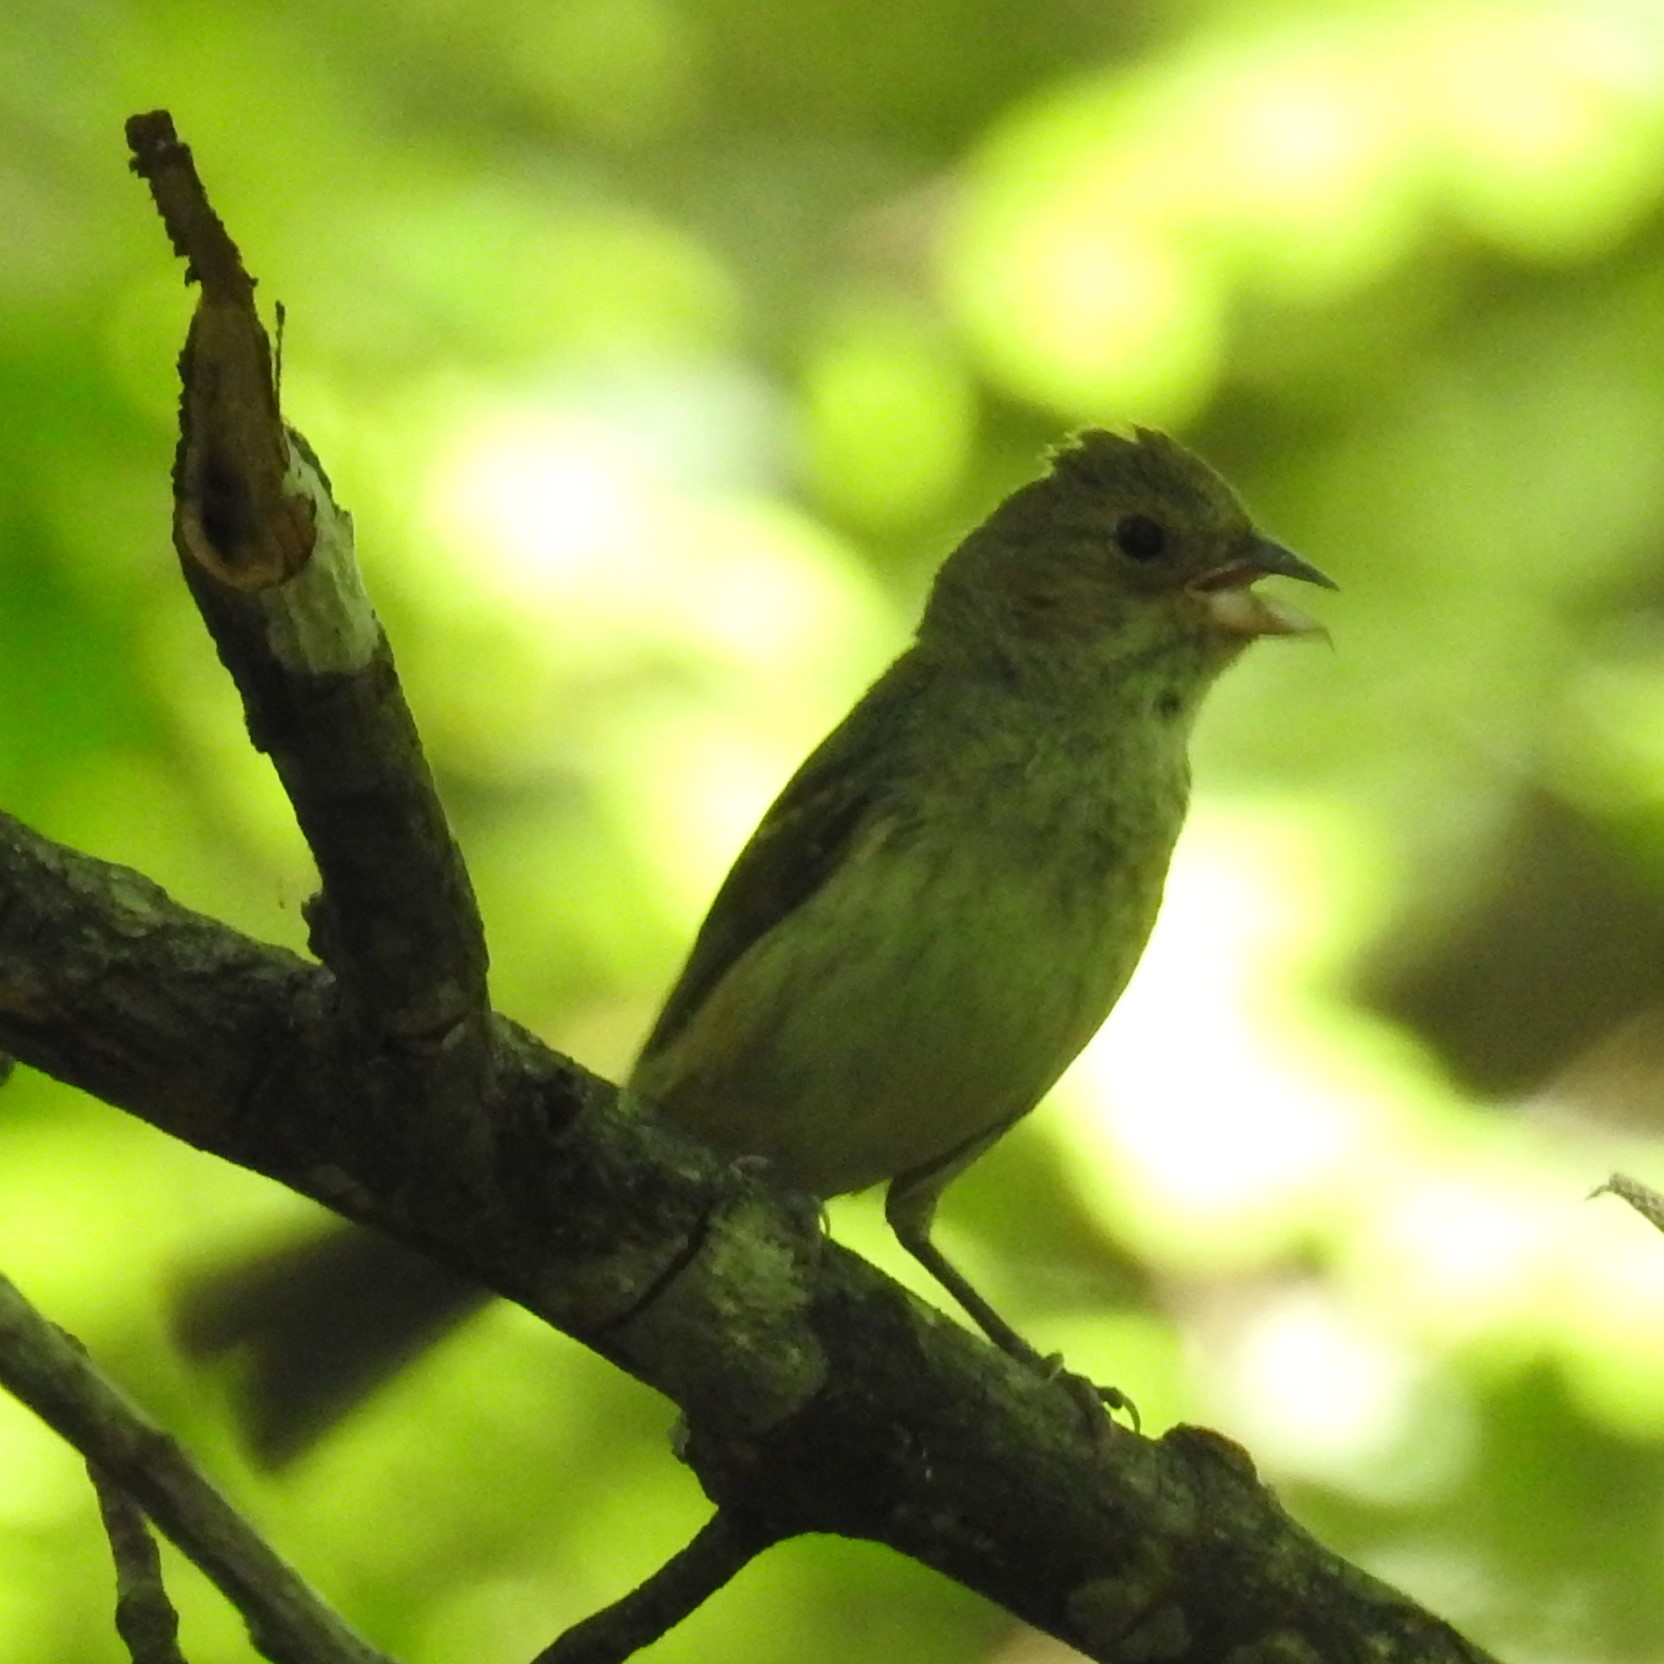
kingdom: Animalia
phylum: Chordata
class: Aves
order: Passeriformes
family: Cardinalidae
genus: Passerina
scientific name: Passerina cyanea
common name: Indigo bunting
